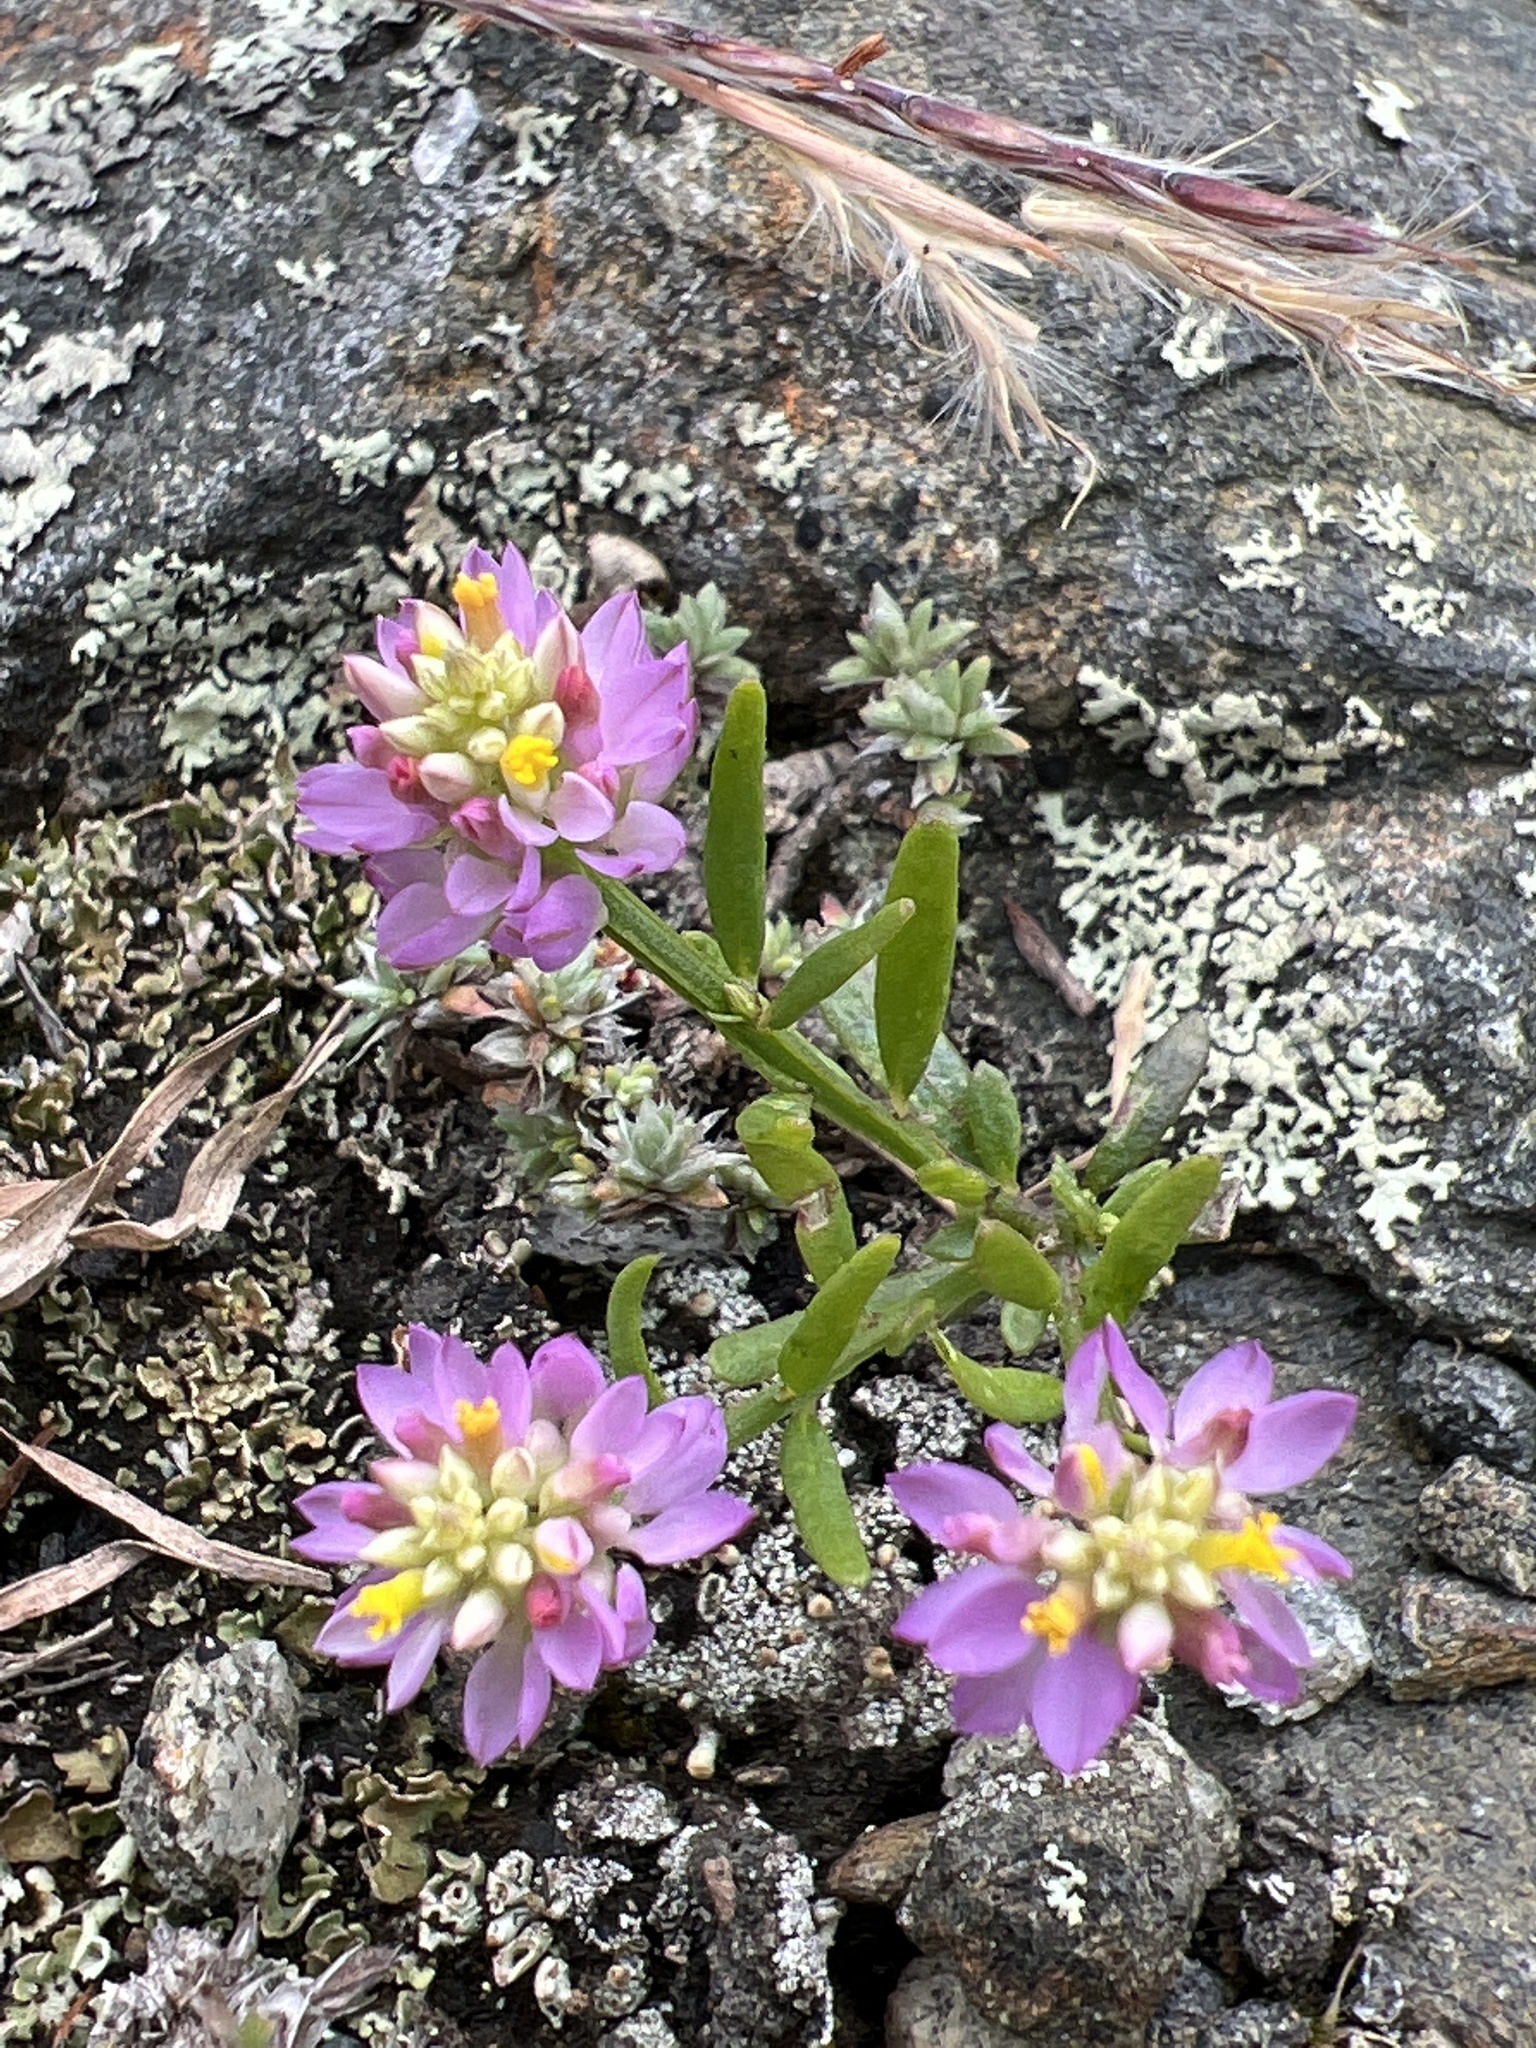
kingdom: Plantae
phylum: Tracheophyta
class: Magnoliopsida
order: Fabales
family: Polygalaceae
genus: Polygala
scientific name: Polygala curtissii
